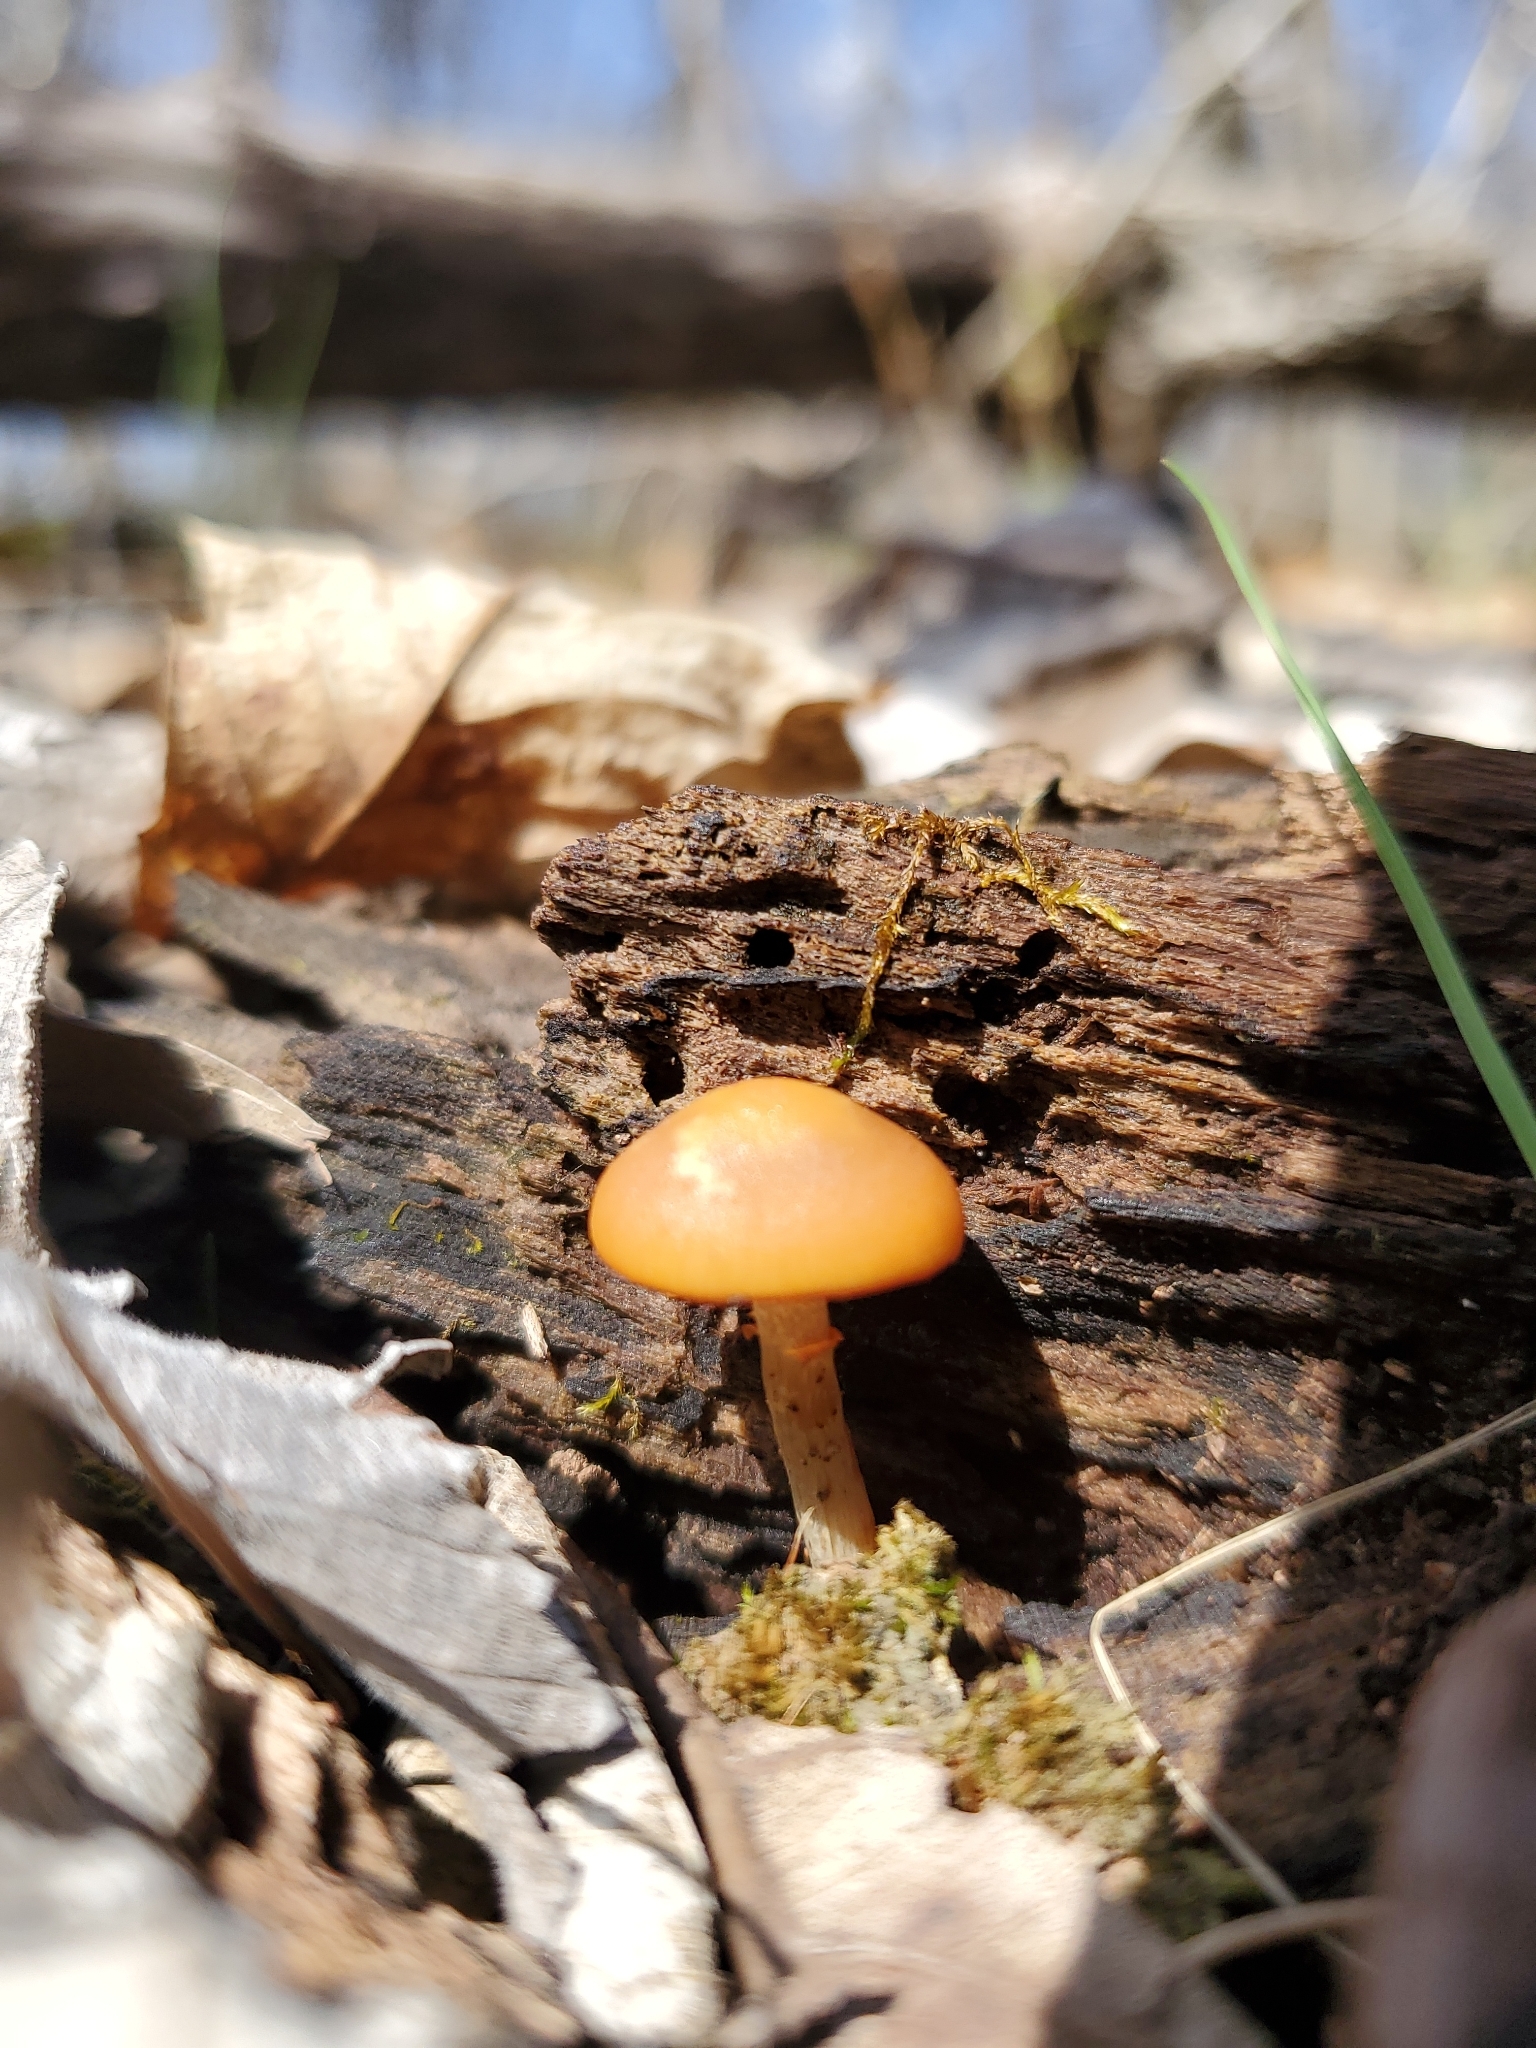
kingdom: Fungi
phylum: Basidiomycota
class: Agaricomycetes
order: Agaricales
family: Hymenogastraceae
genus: Galerina
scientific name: Galerina marginata
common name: Funeral bell
